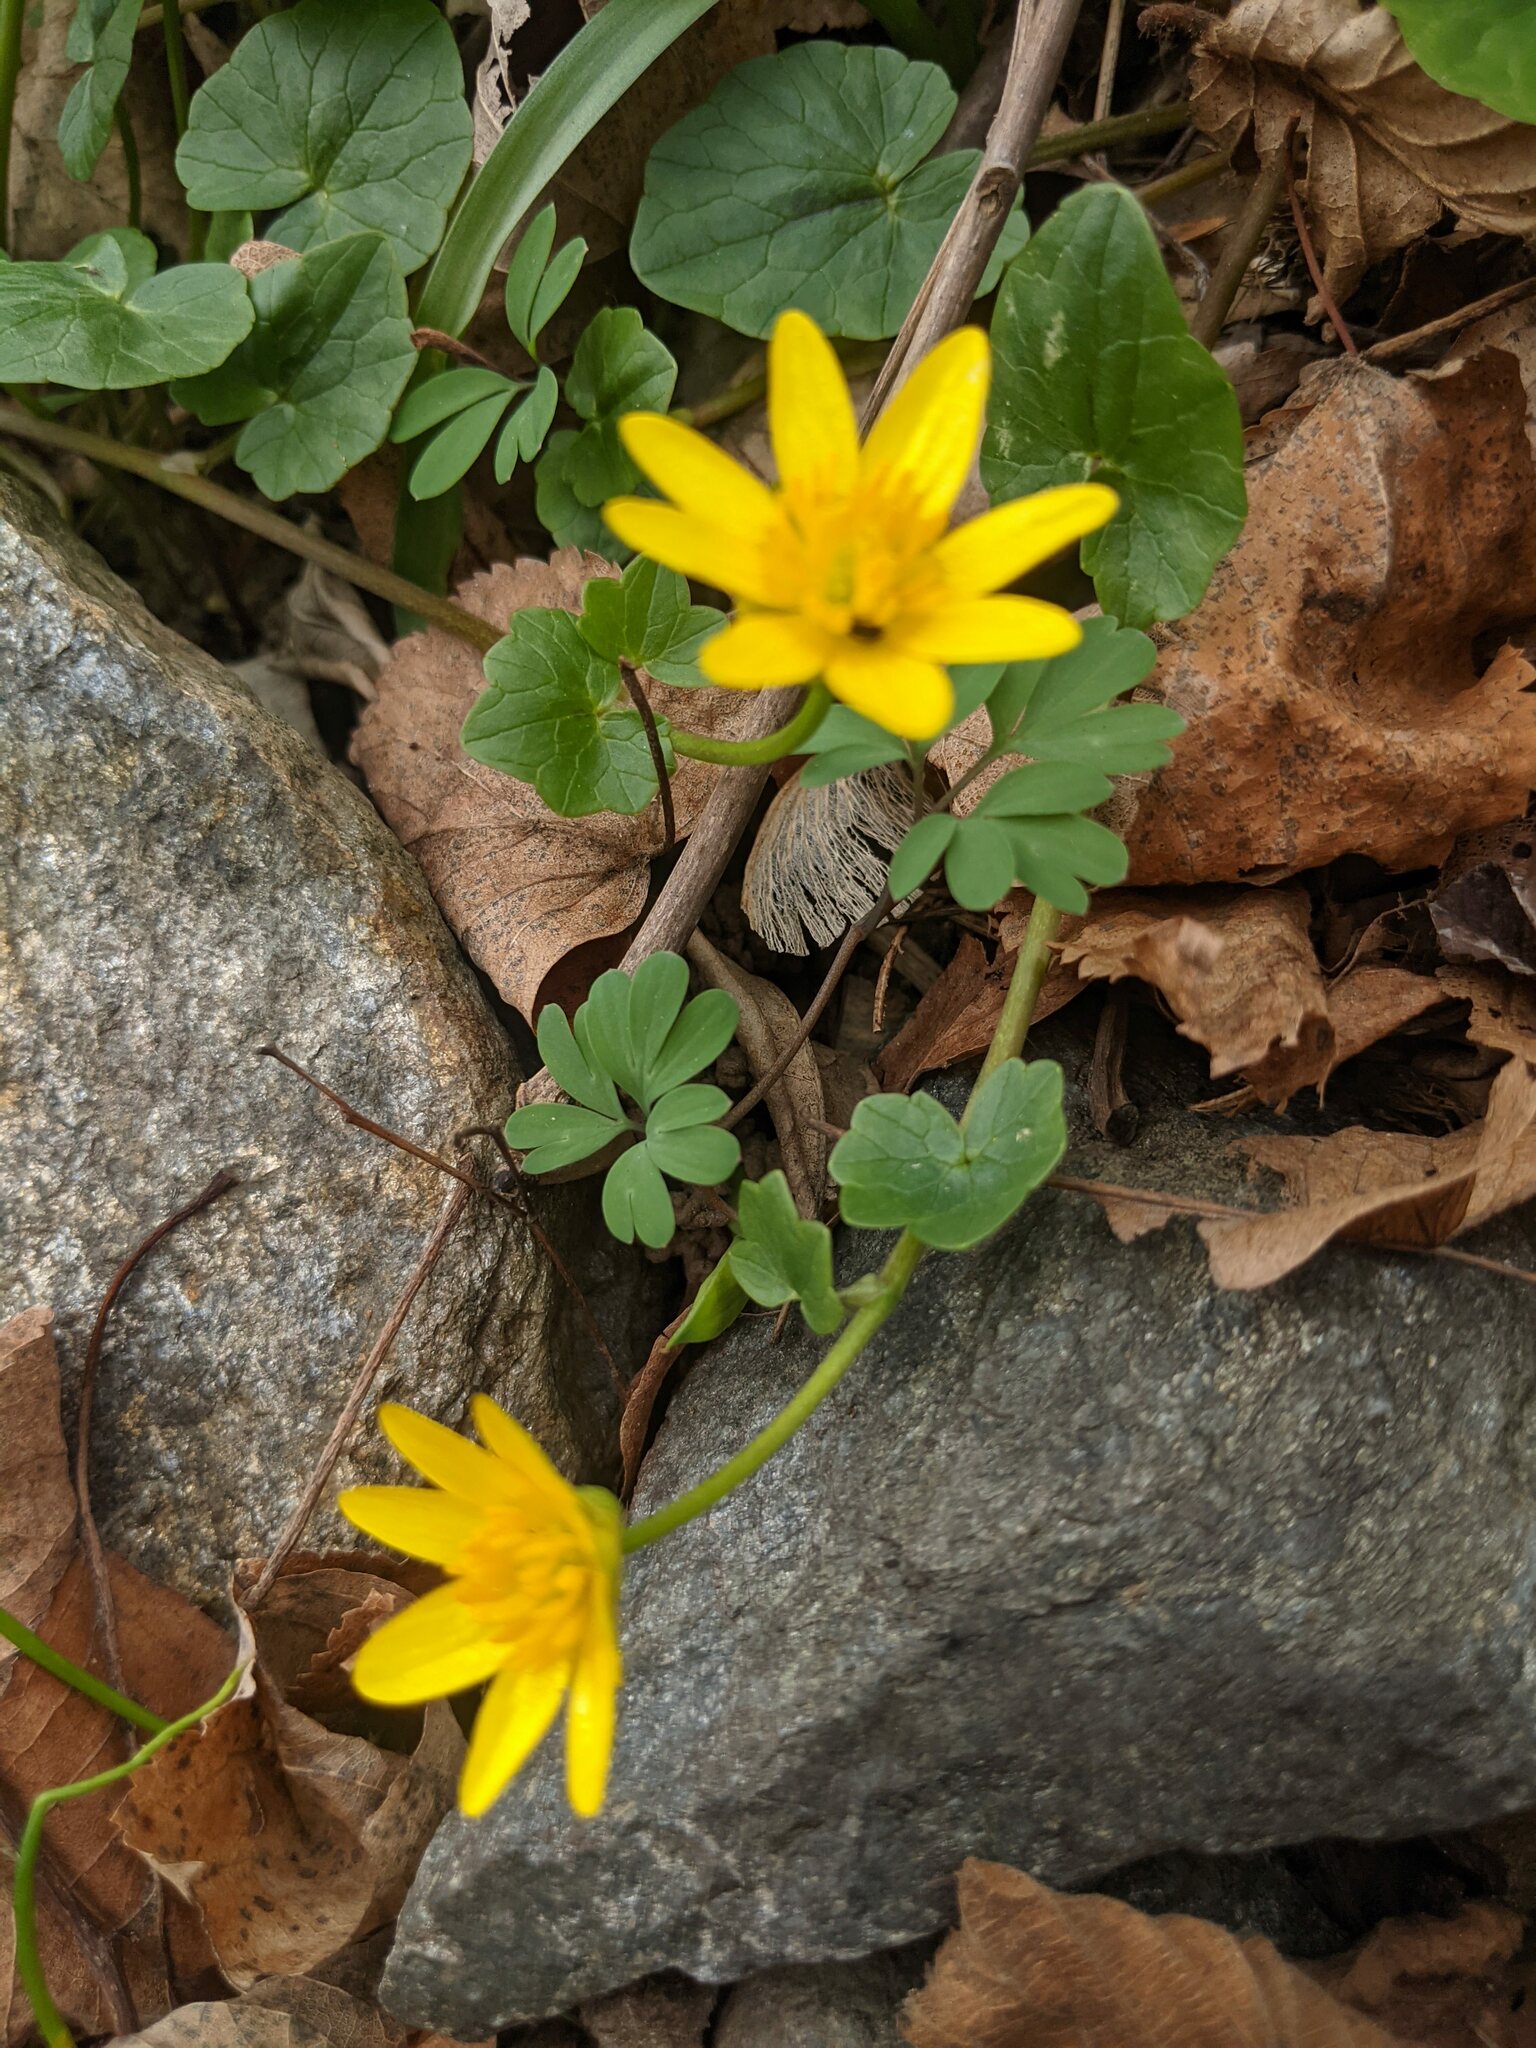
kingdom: Plantae
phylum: Tracheophyta
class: Magnoliopsida
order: Ranunculales
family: Ranunculaceae
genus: Ficaria
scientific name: Ficaria verna
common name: Lesser celandine
